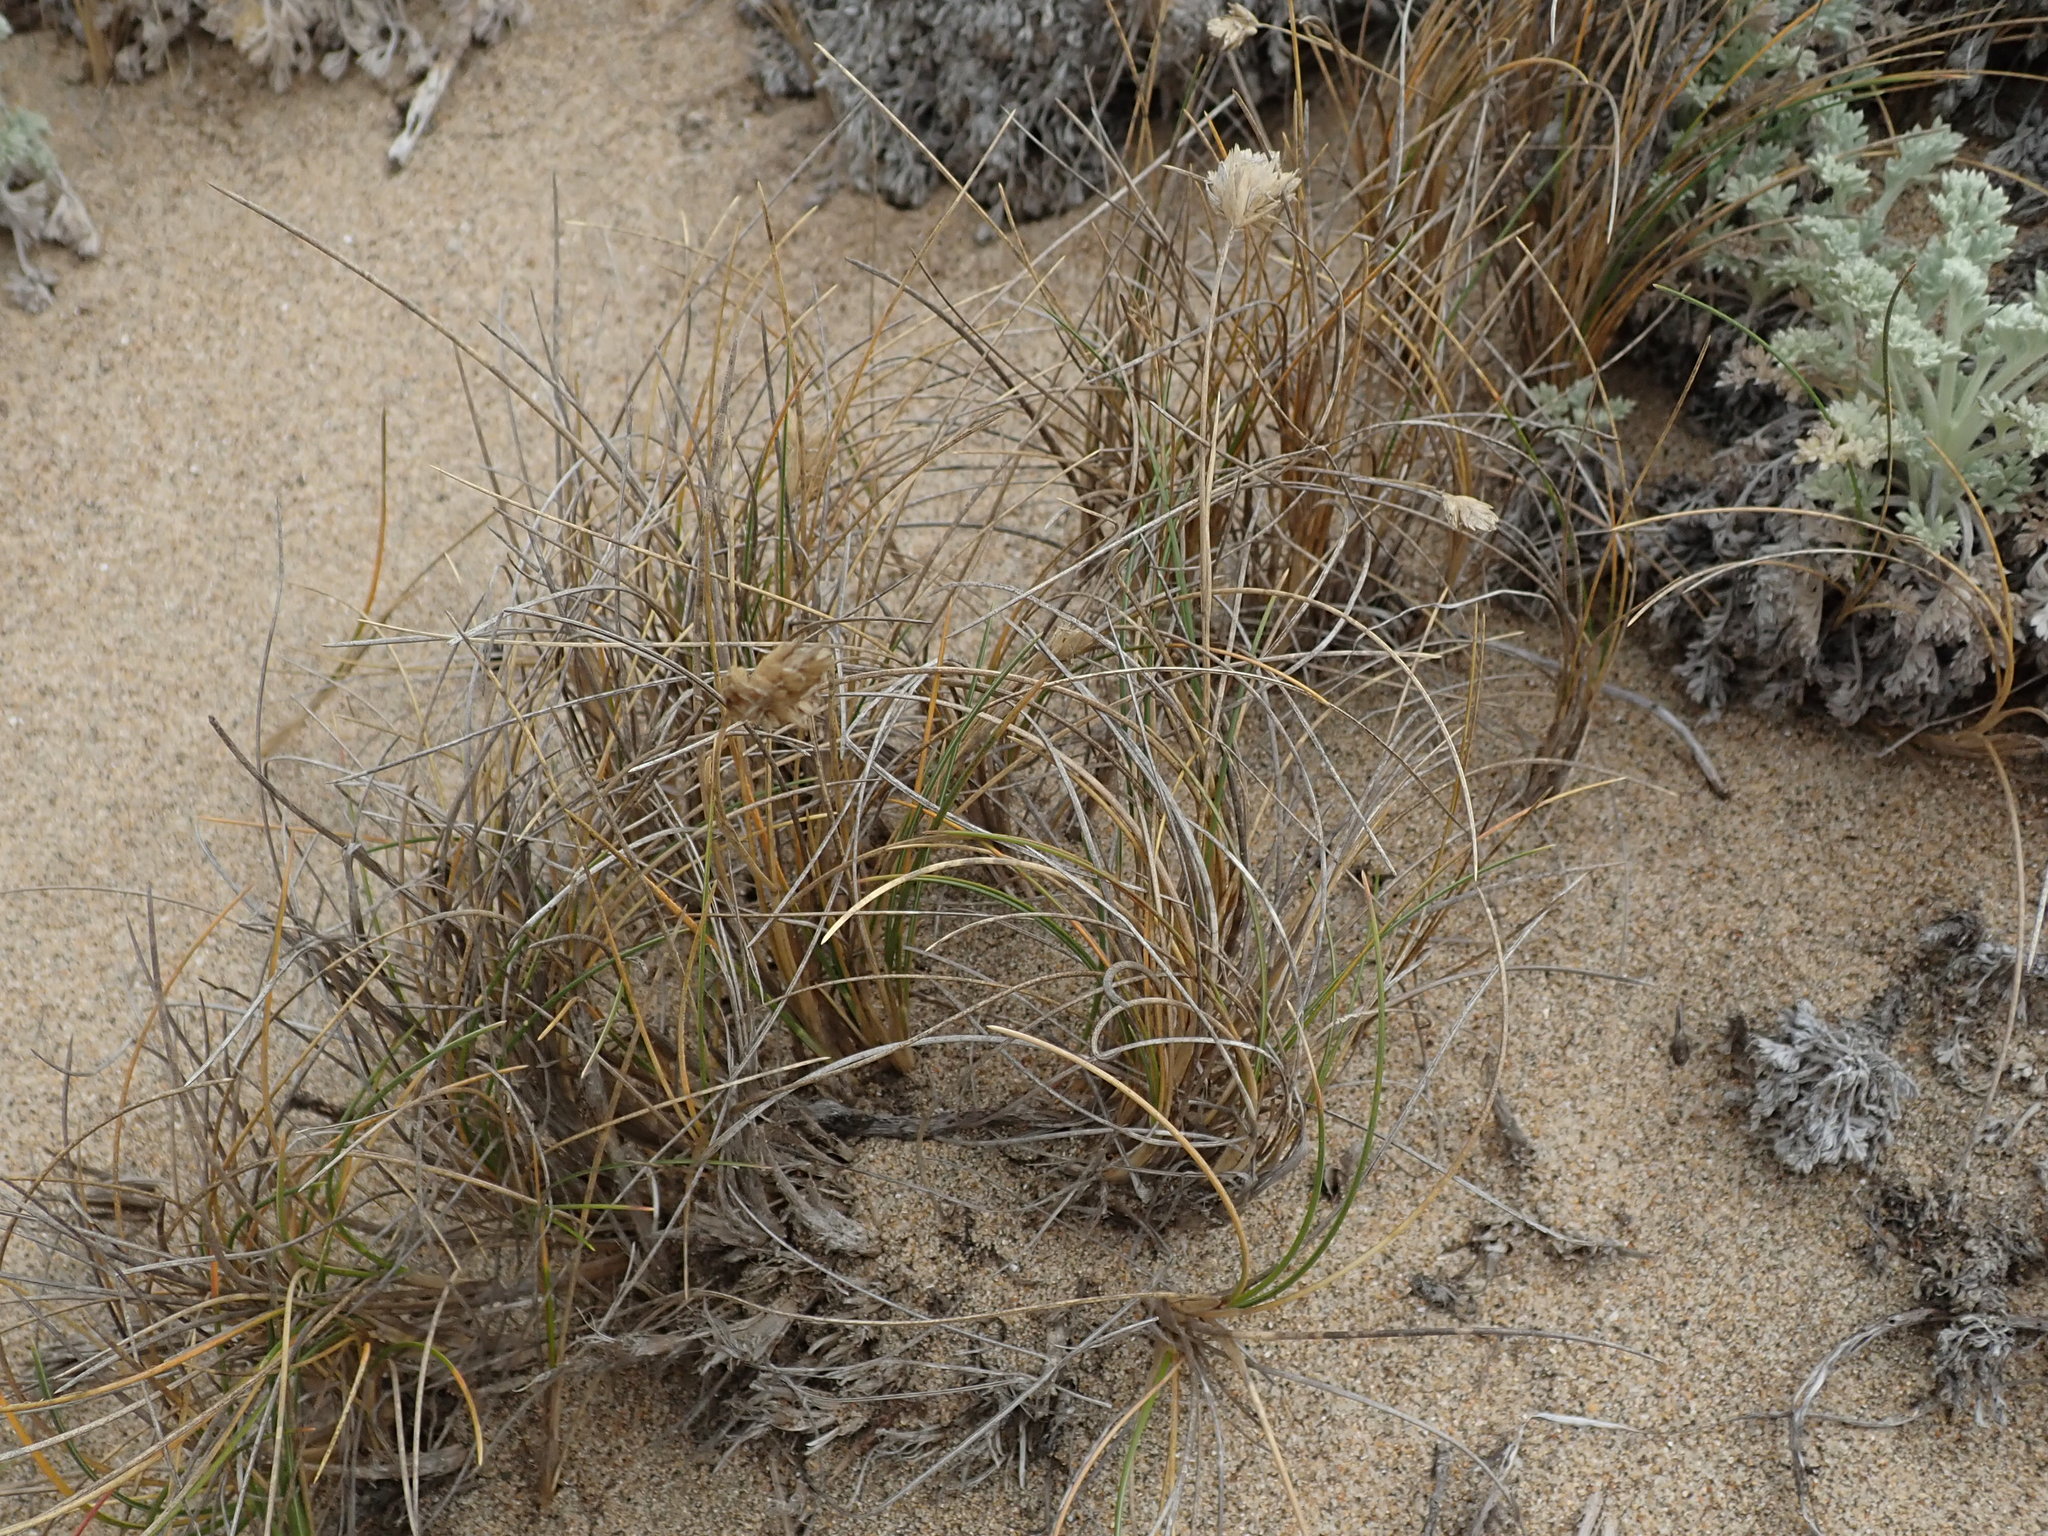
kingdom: Plantae
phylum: Tracheophyta
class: Liliopsida
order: Poales
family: Poaceae
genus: Poa
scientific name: Poa douglasii
